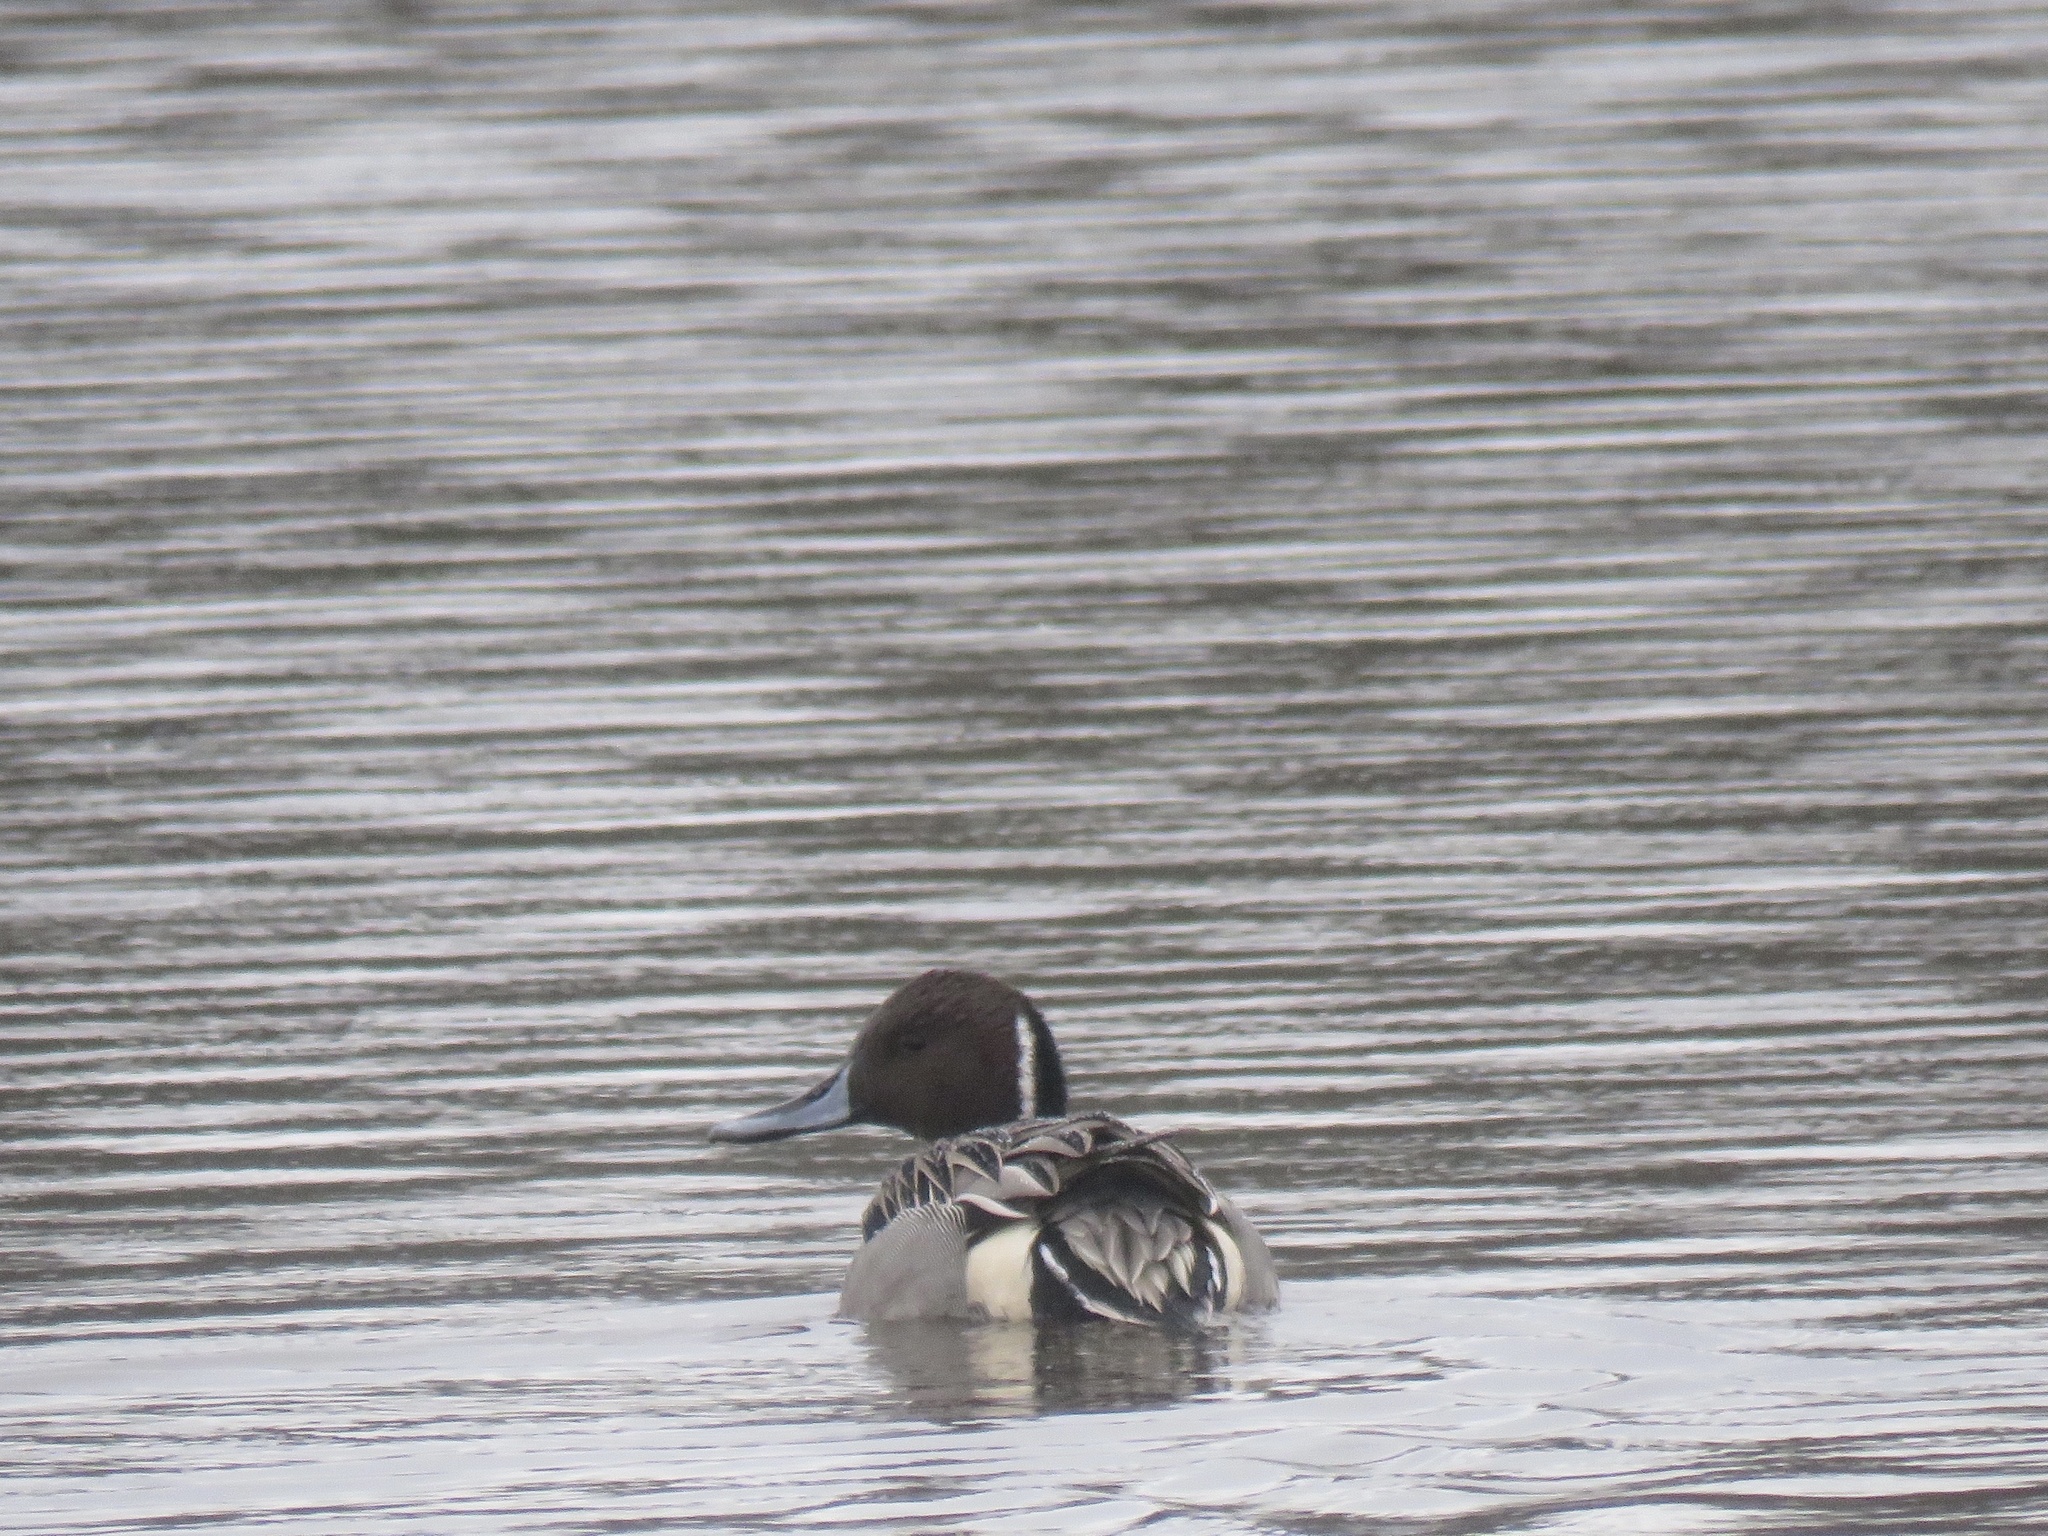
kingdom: Animalia
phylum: Chordata
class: Aves
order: Anseriformes
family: Anatidae
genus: Anas
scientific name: Anas acuta
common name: Northern pintail
